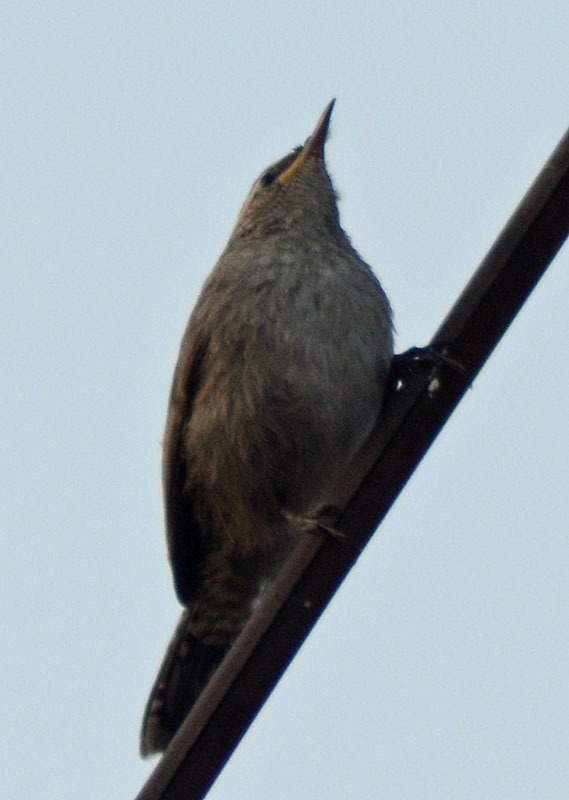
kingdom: Animalia
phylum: Chordata
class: Aves
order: Passeriformes
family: Troglodytidae
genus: Thryomanes
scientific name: Thryomanes bewickii
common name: Bewick's wren
